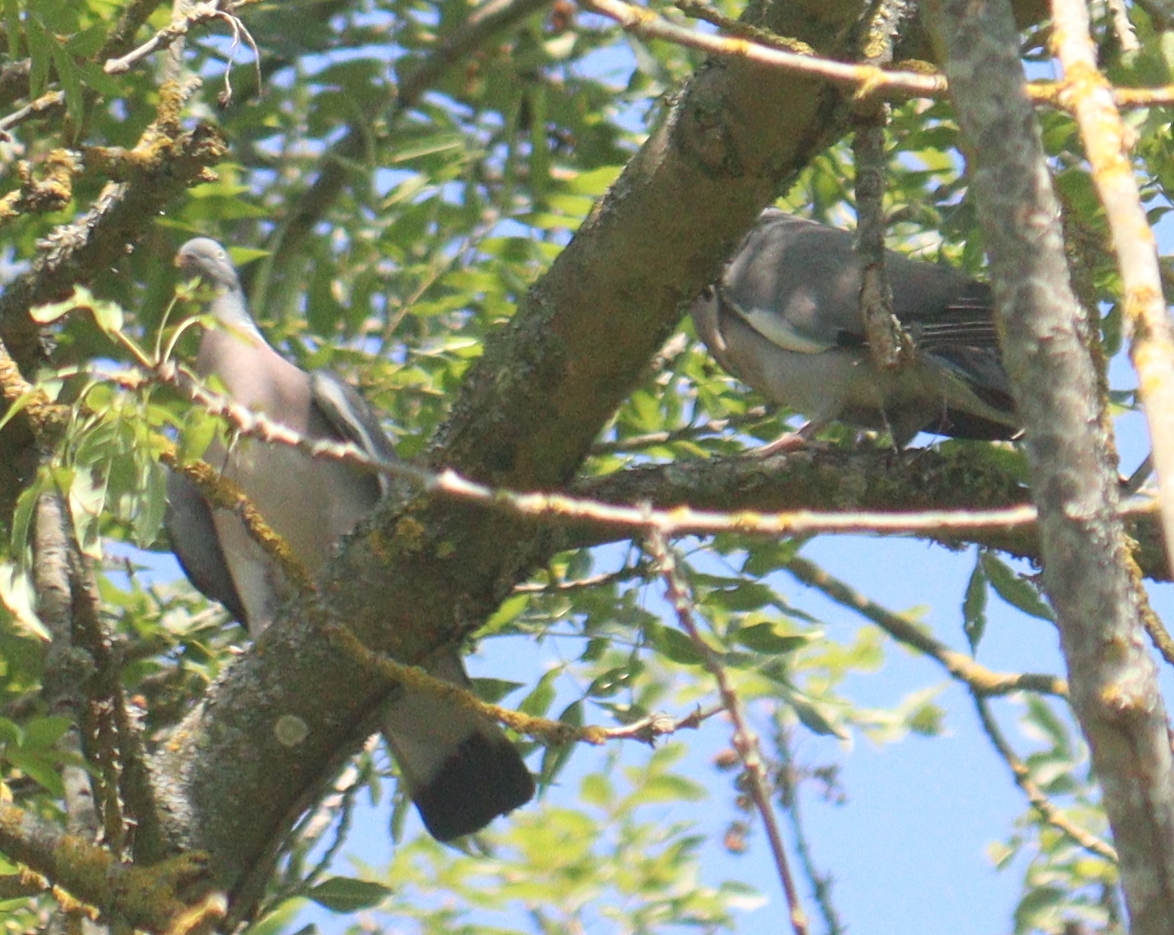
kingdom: Animalia
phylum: Chordata
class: Aves
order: Columbiformes
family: Columbidae
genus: Columba
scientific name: Columba palumbus
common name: Common wood pigeon
